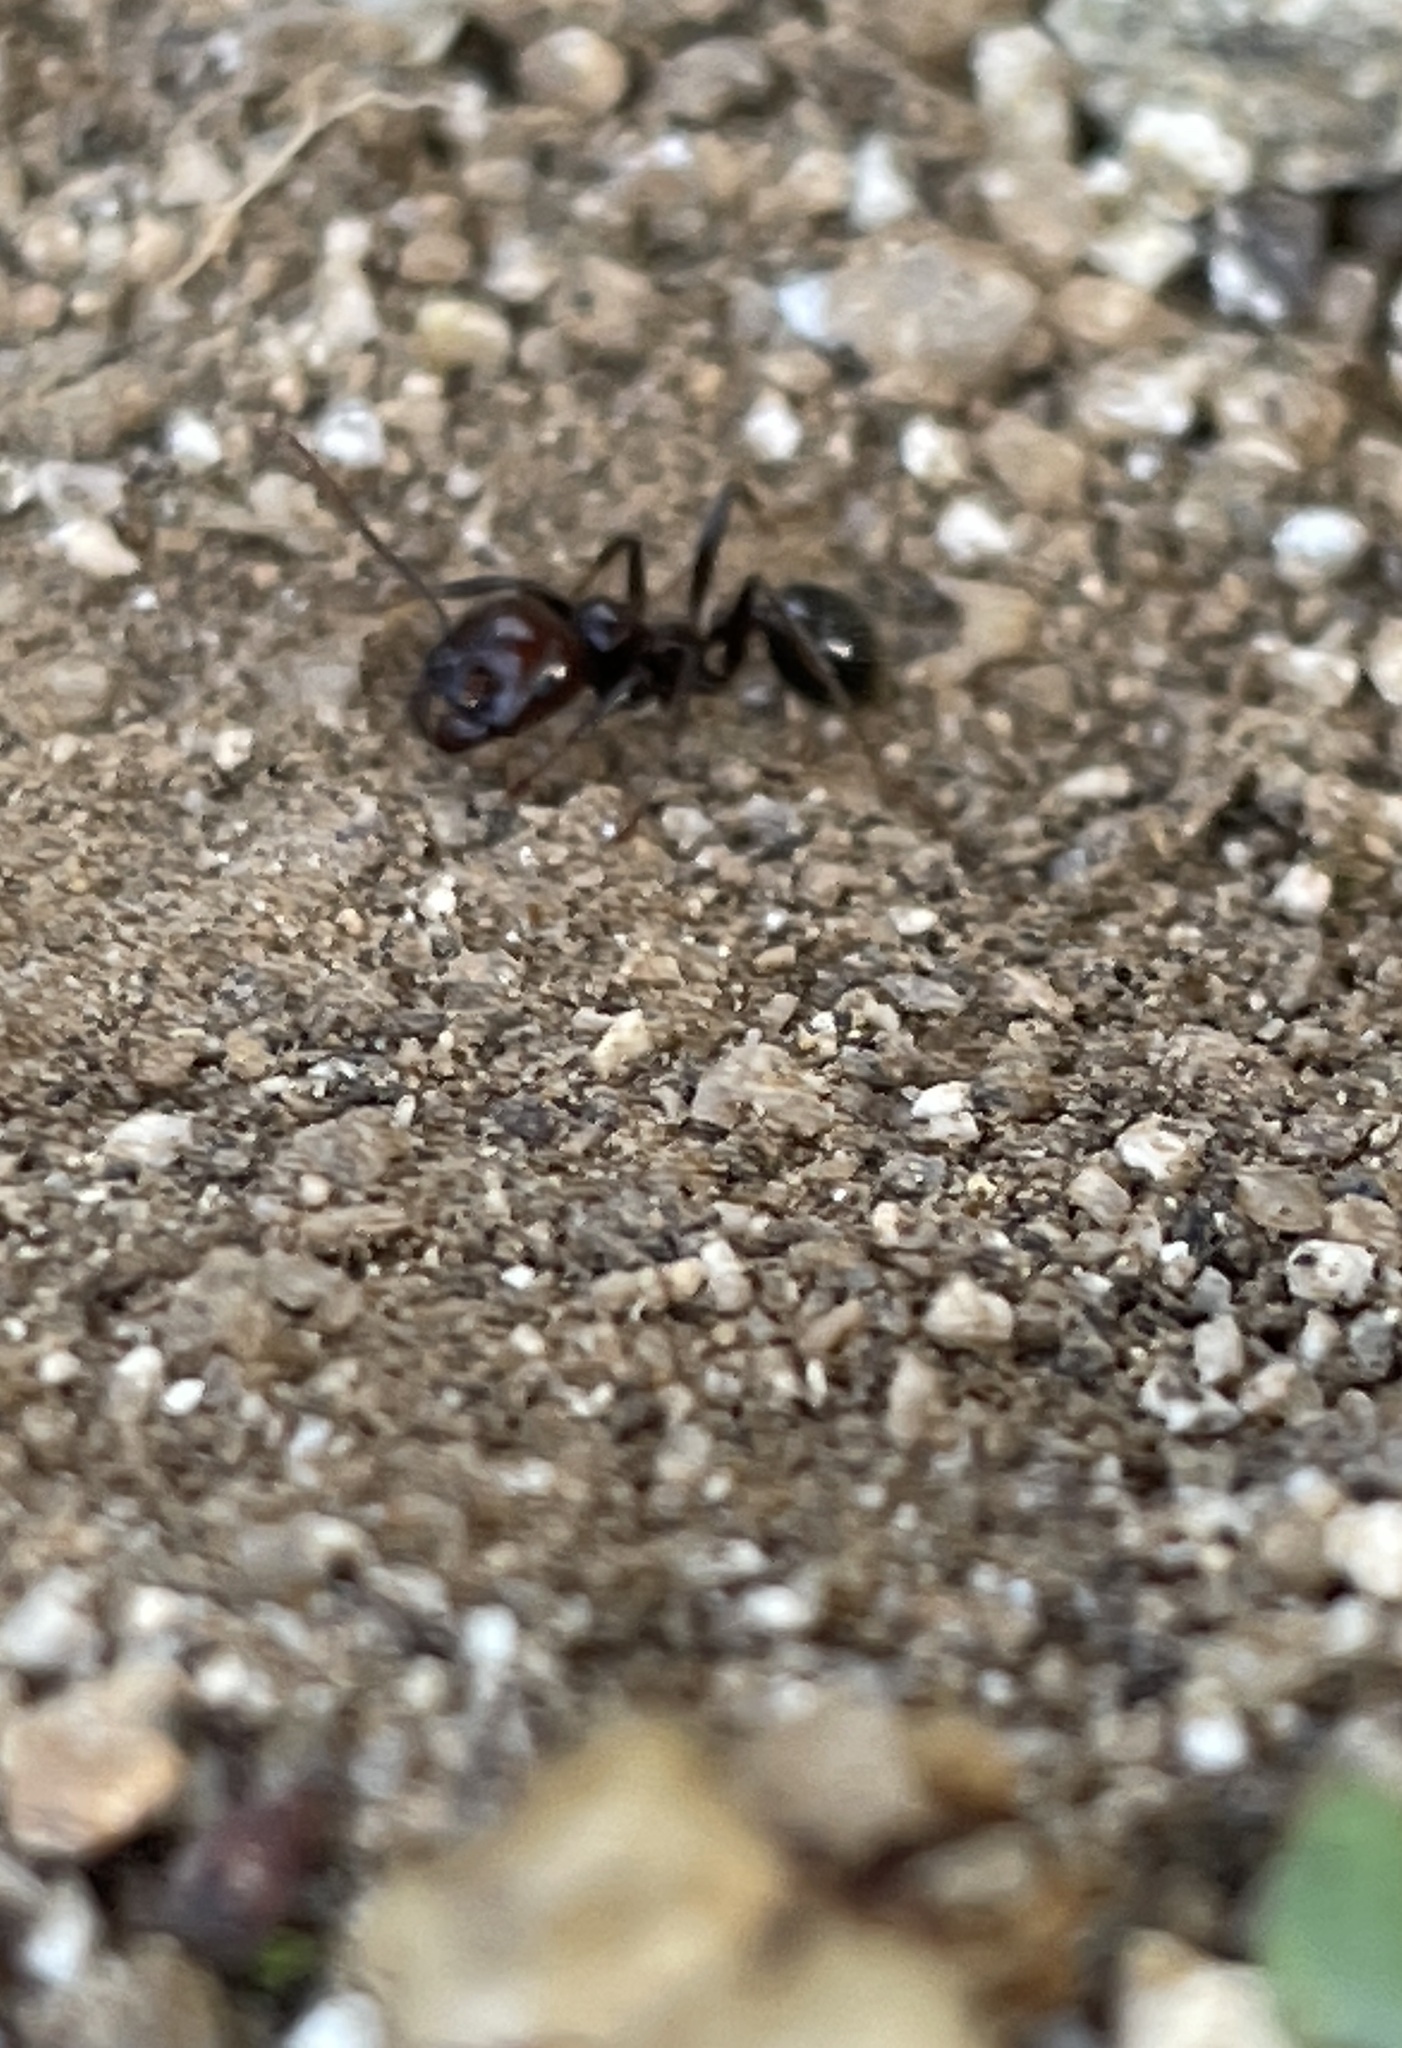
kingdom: Animalia
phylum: Arthropoda
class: Insecta
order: Hymenoptera
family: Formicidae
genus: Messor
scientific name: Messor barbarus
